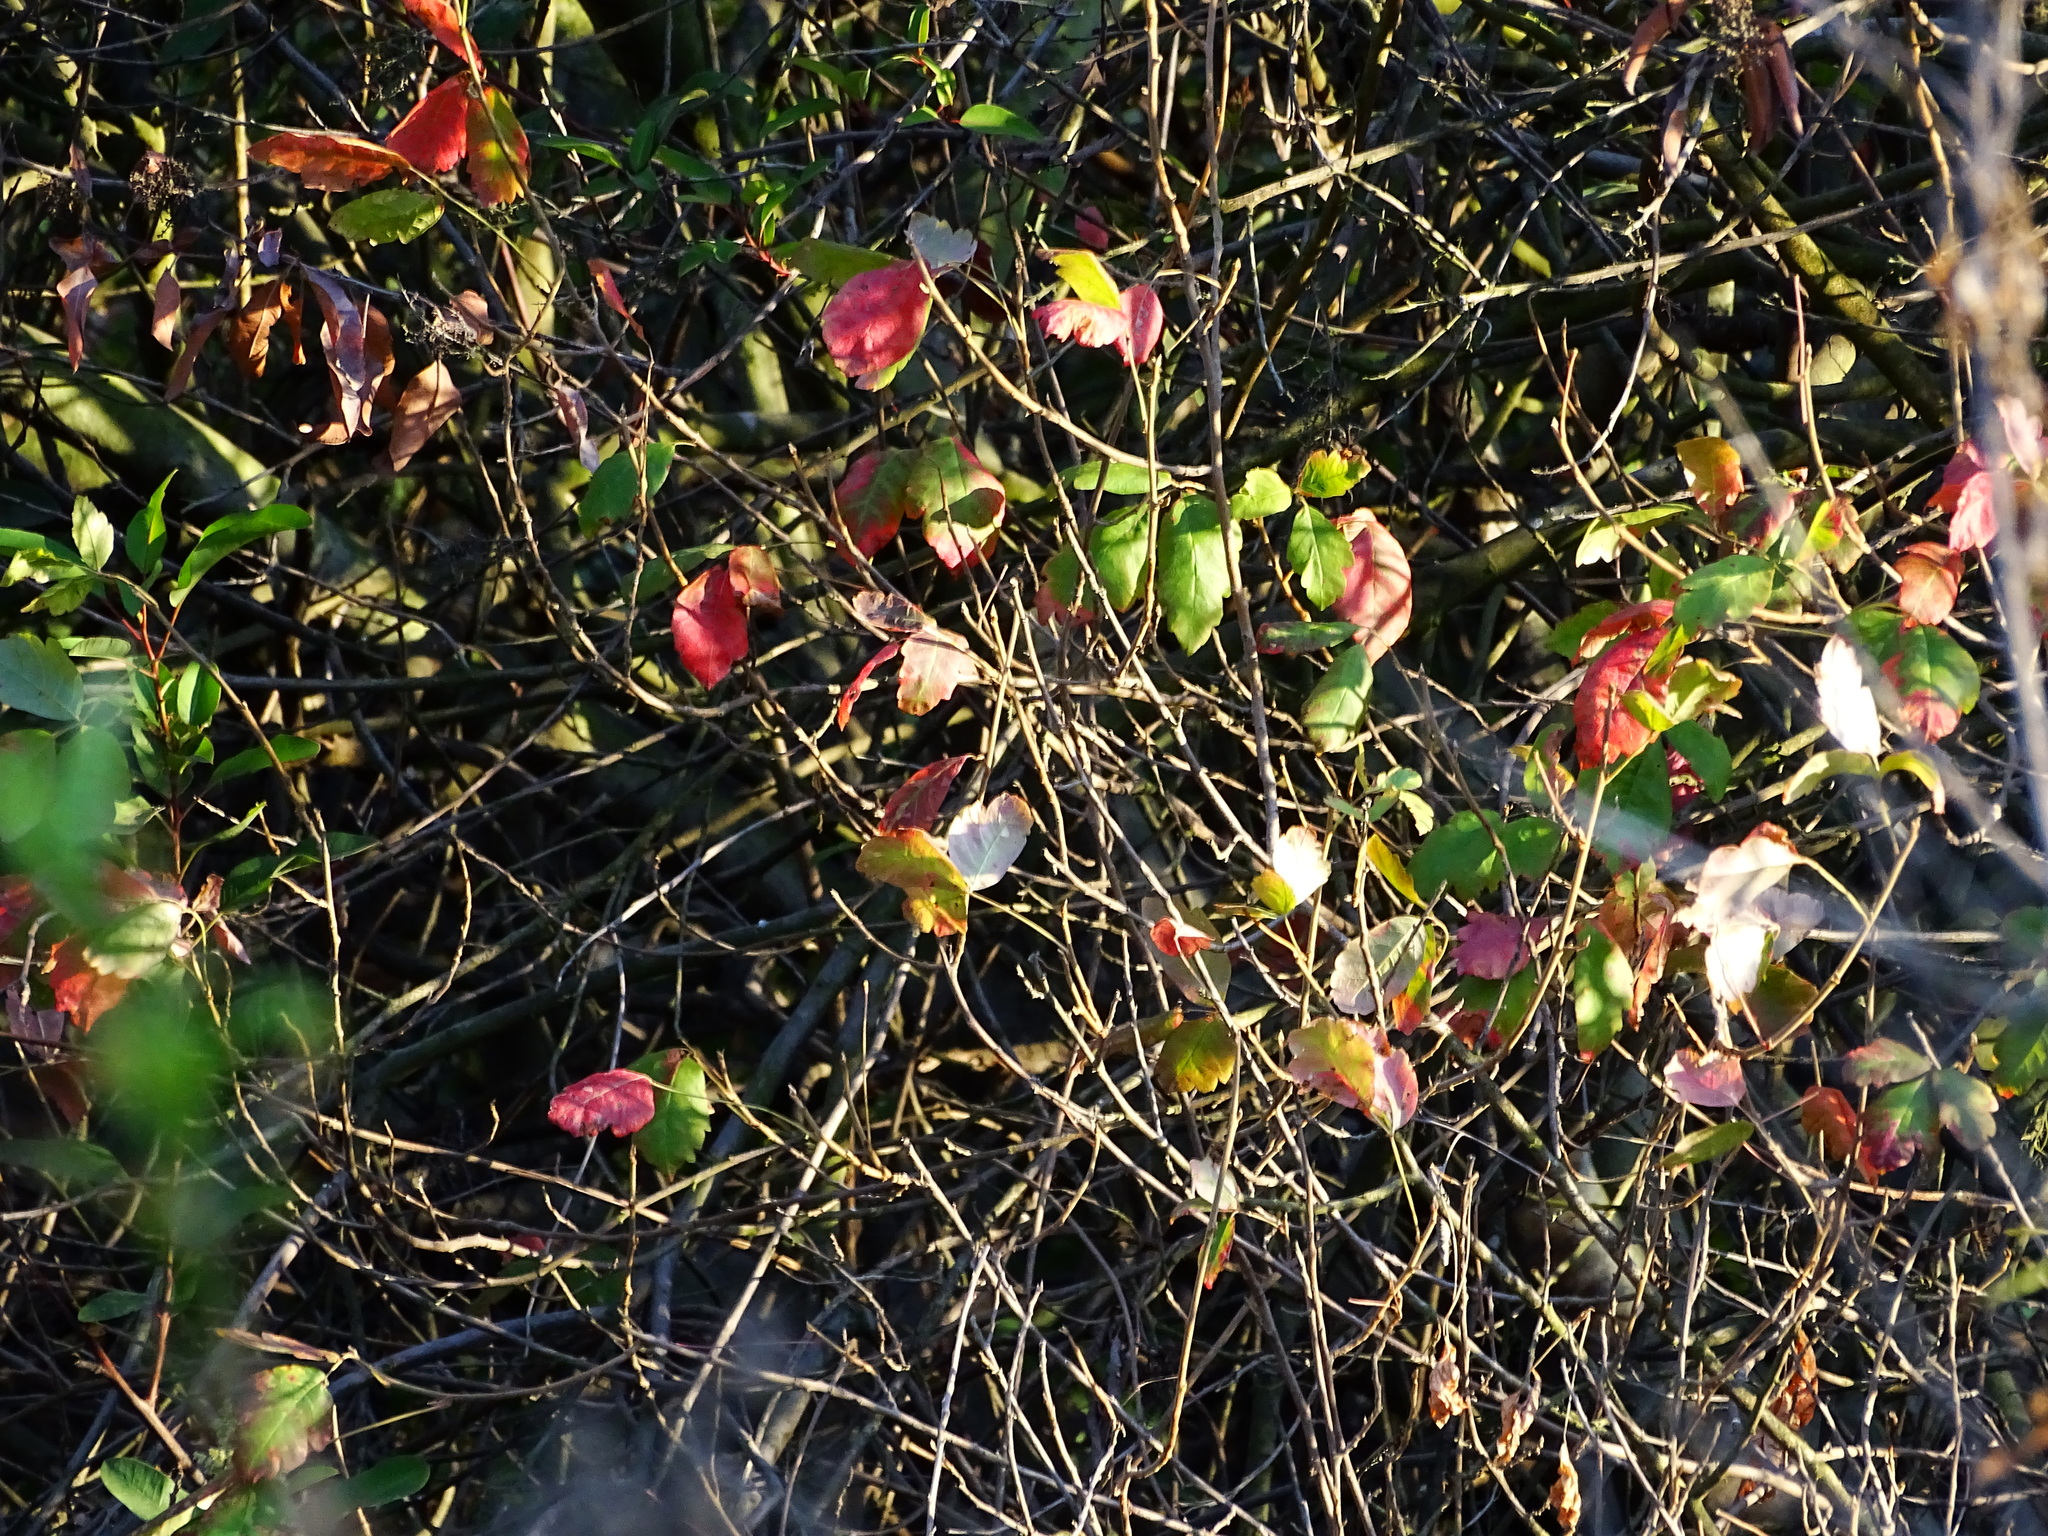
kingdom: Plantae
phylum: Tracheophyta
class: Magnoliopsida
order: Sapindales
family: Anacardiaceae
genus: Toxicodendron
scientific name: Toxicodendron diversilobum
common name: Pacific poison-oak
